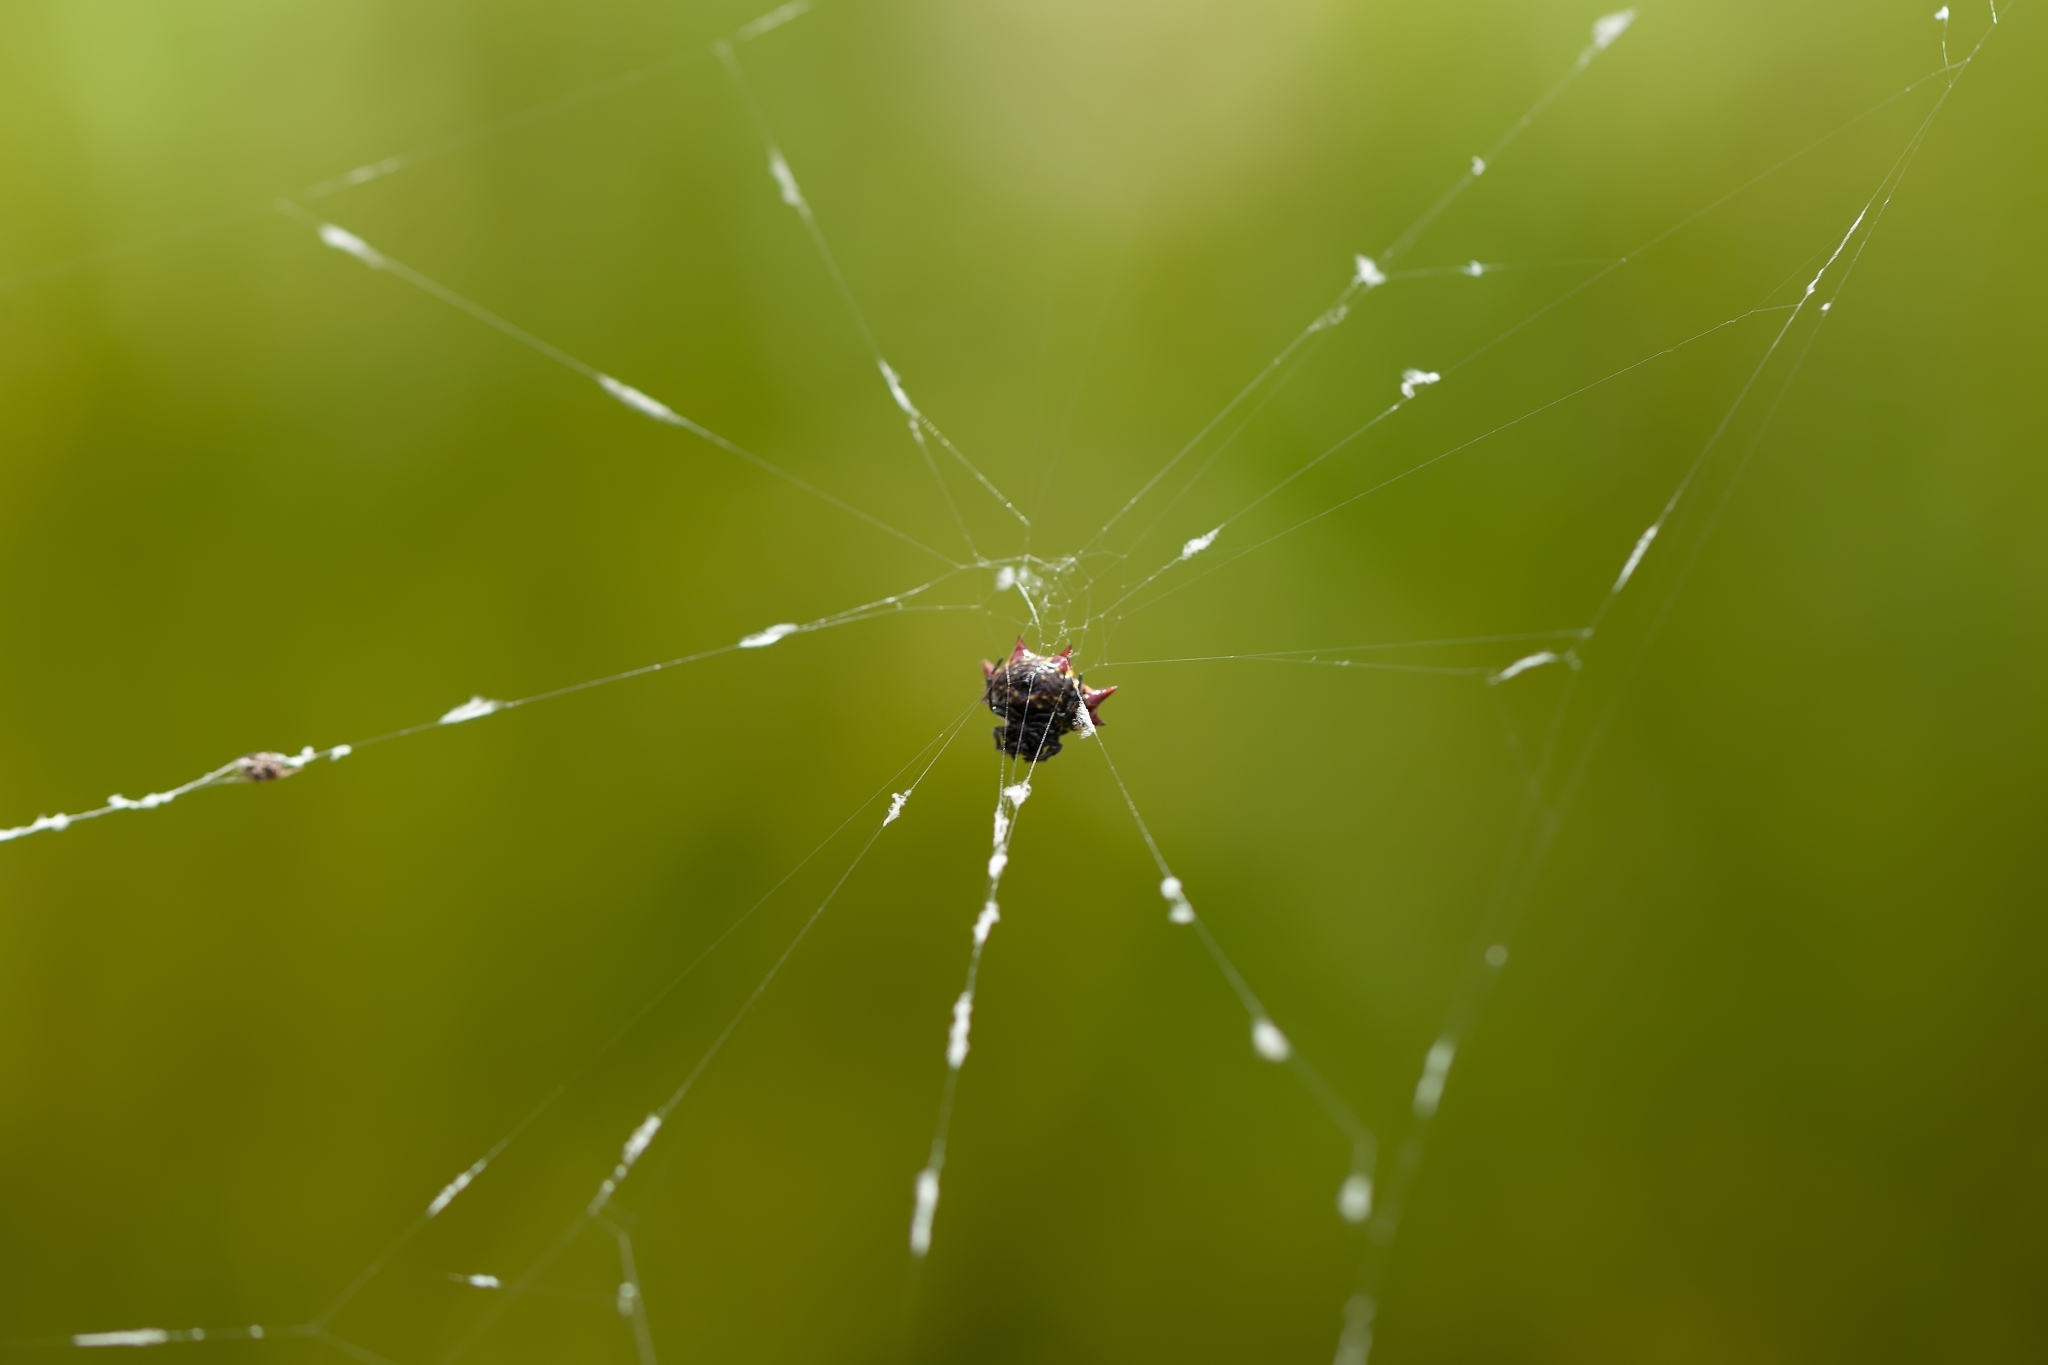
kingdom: Animalia
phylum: Arthropoda
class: Arachnida
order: Araneae
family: Araneidae
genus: Gasteracantha
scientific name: Gasteracantha cancriformis
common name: Orb weavers
